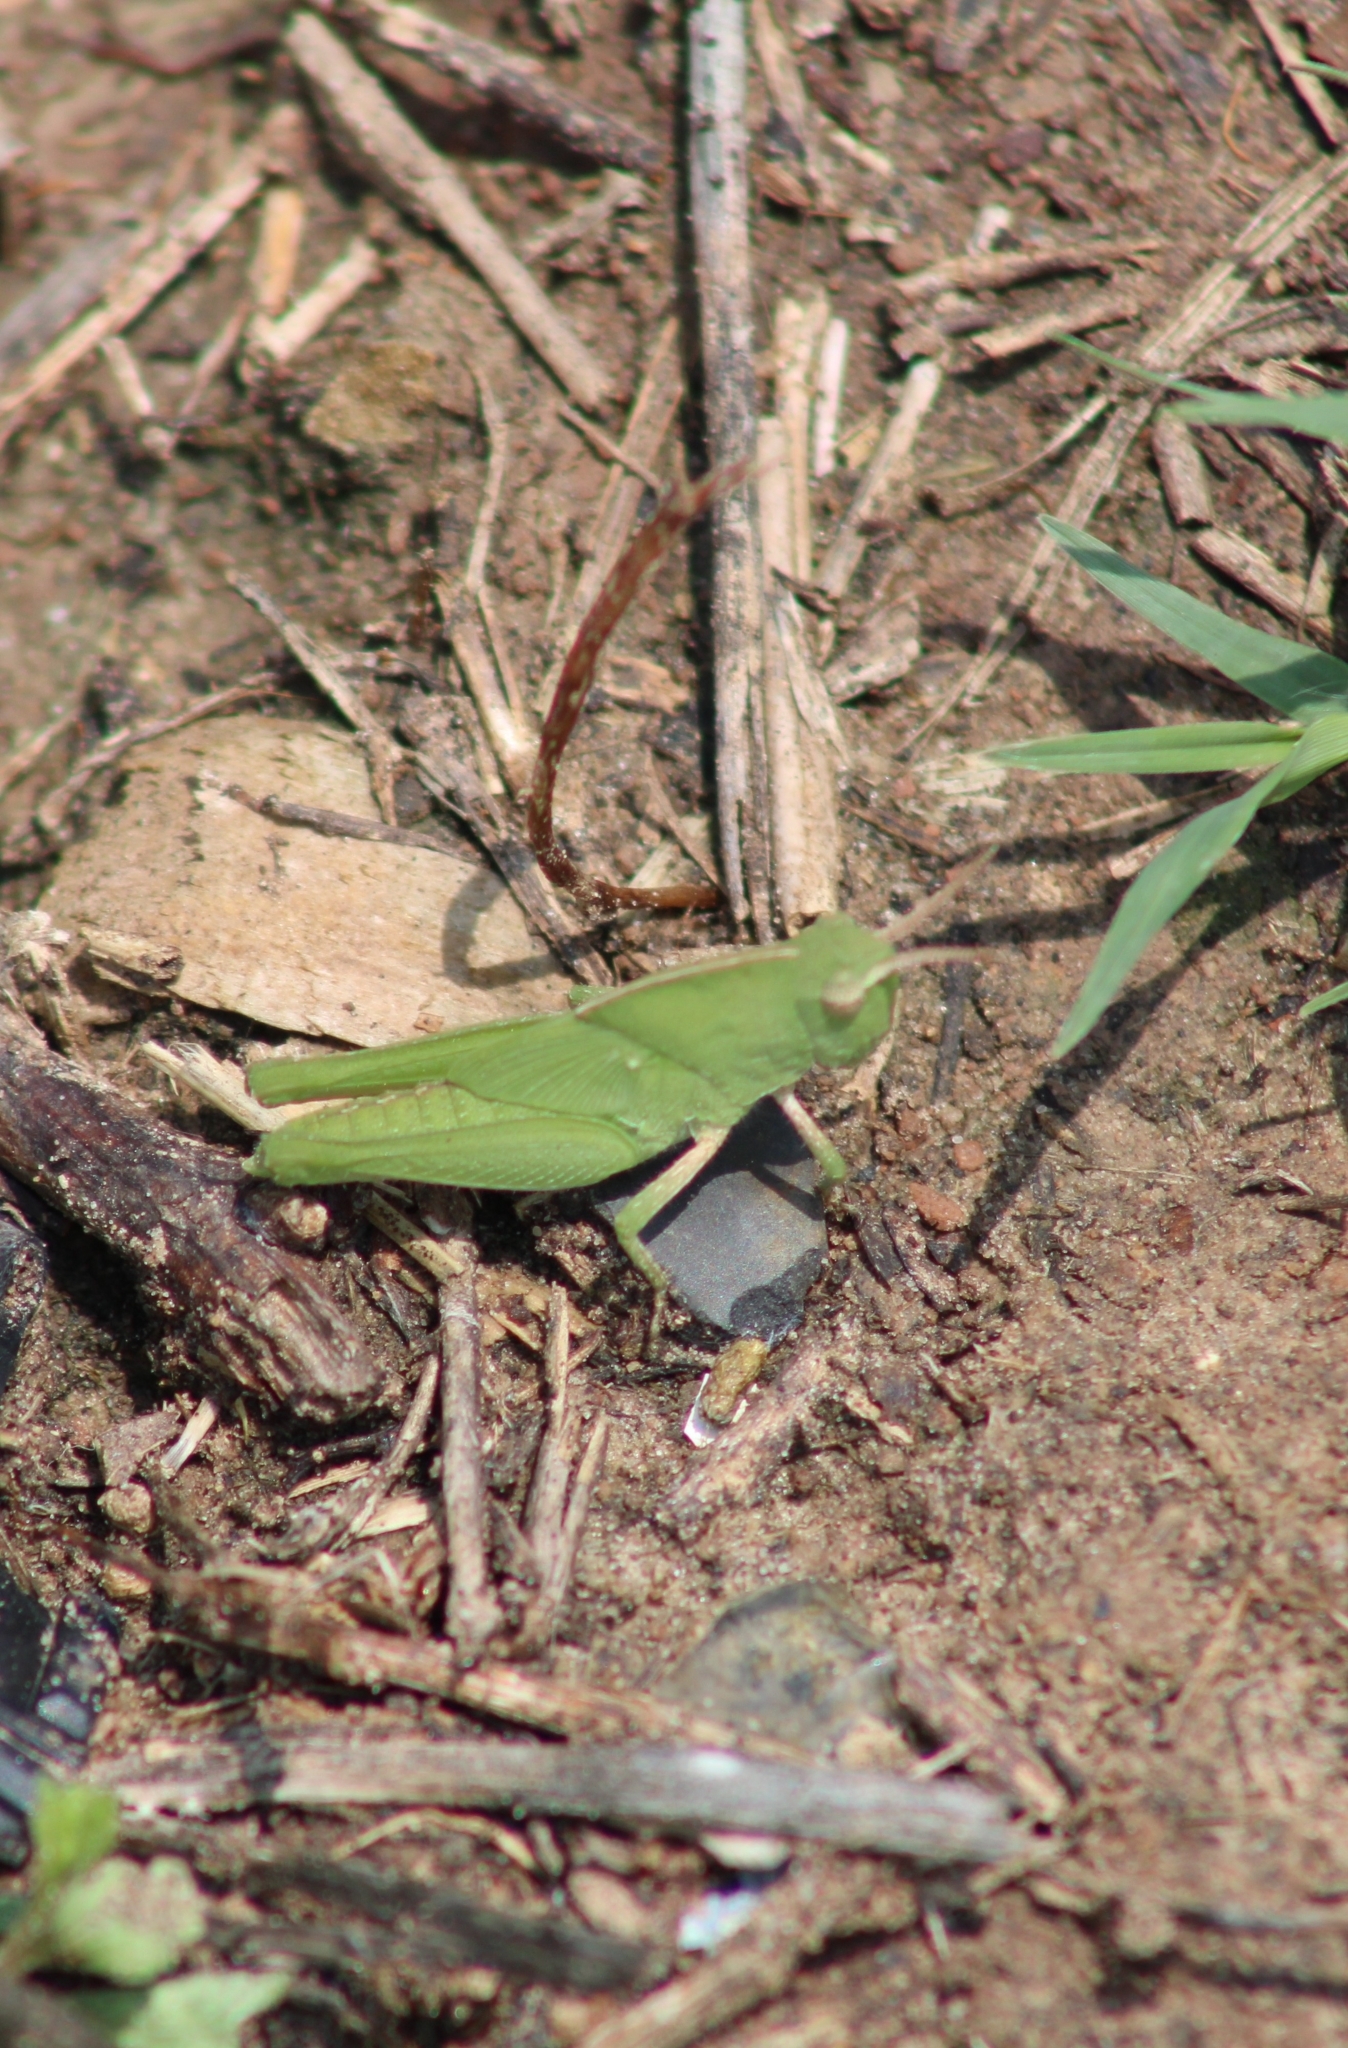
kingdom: Animalia
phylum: Arthropoda
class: Insecta
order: Orthoptera
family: Acrididae
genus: Chortophaga
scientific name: Chortophaga viridifasciata
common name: Green-striped grasshopper
